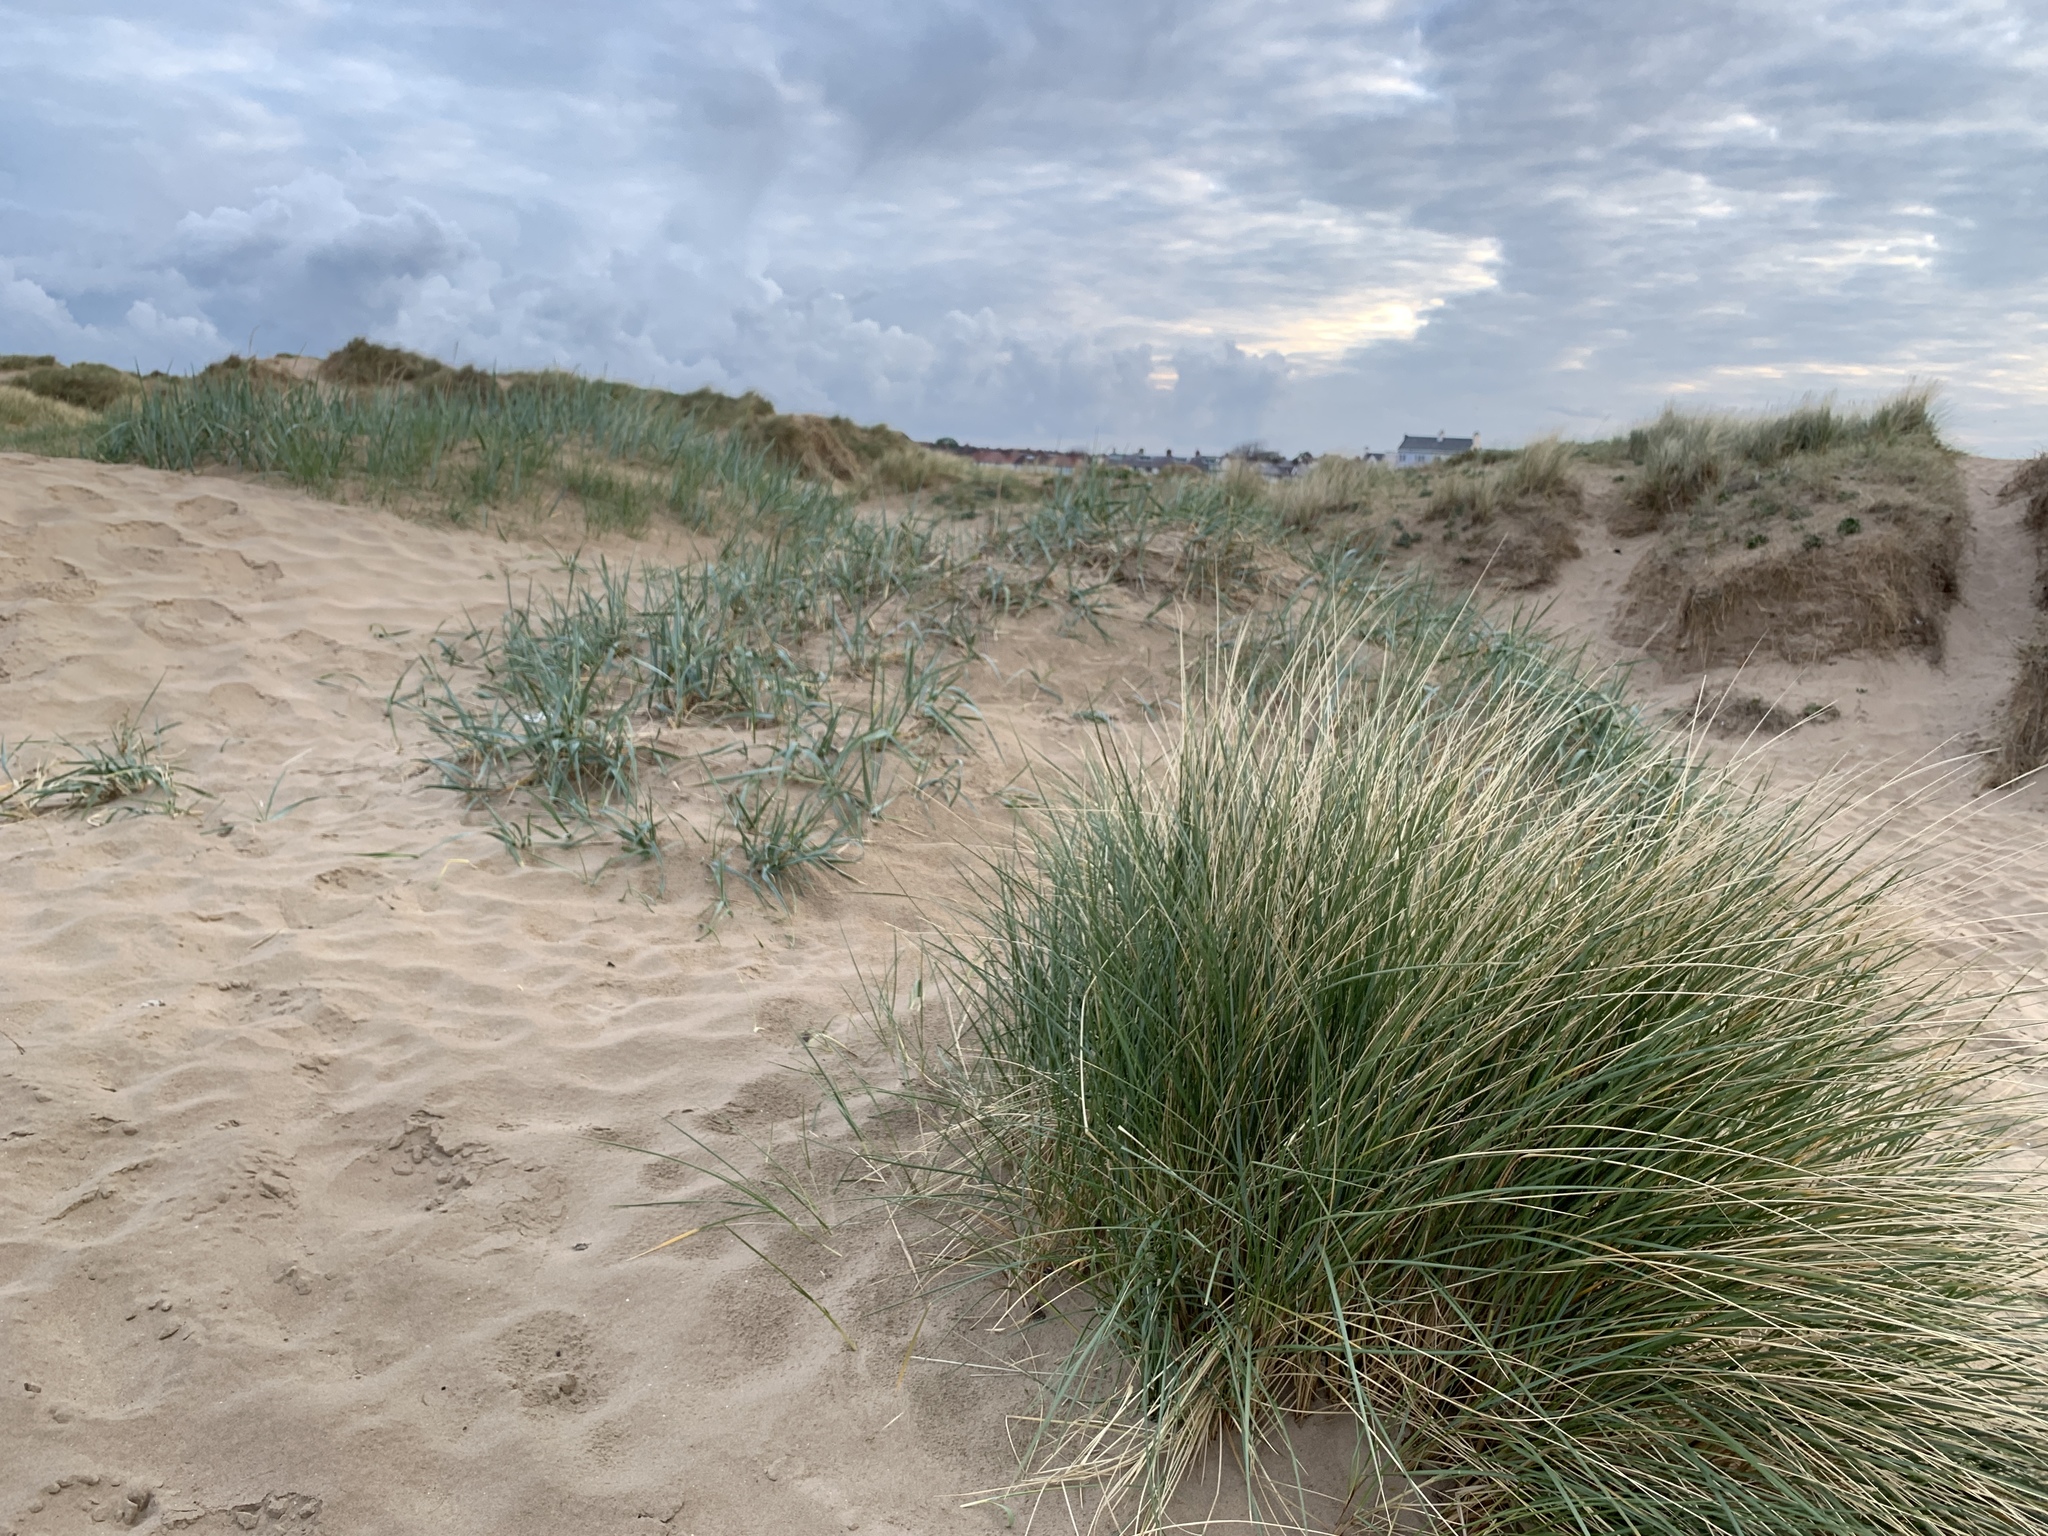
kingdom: Plantae
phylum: Tracheophyta
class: Liliopsida
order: Poales
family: Poaceae
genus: Calamagrostis
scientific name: Calamagrostis arenaria
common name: European beachgrass
